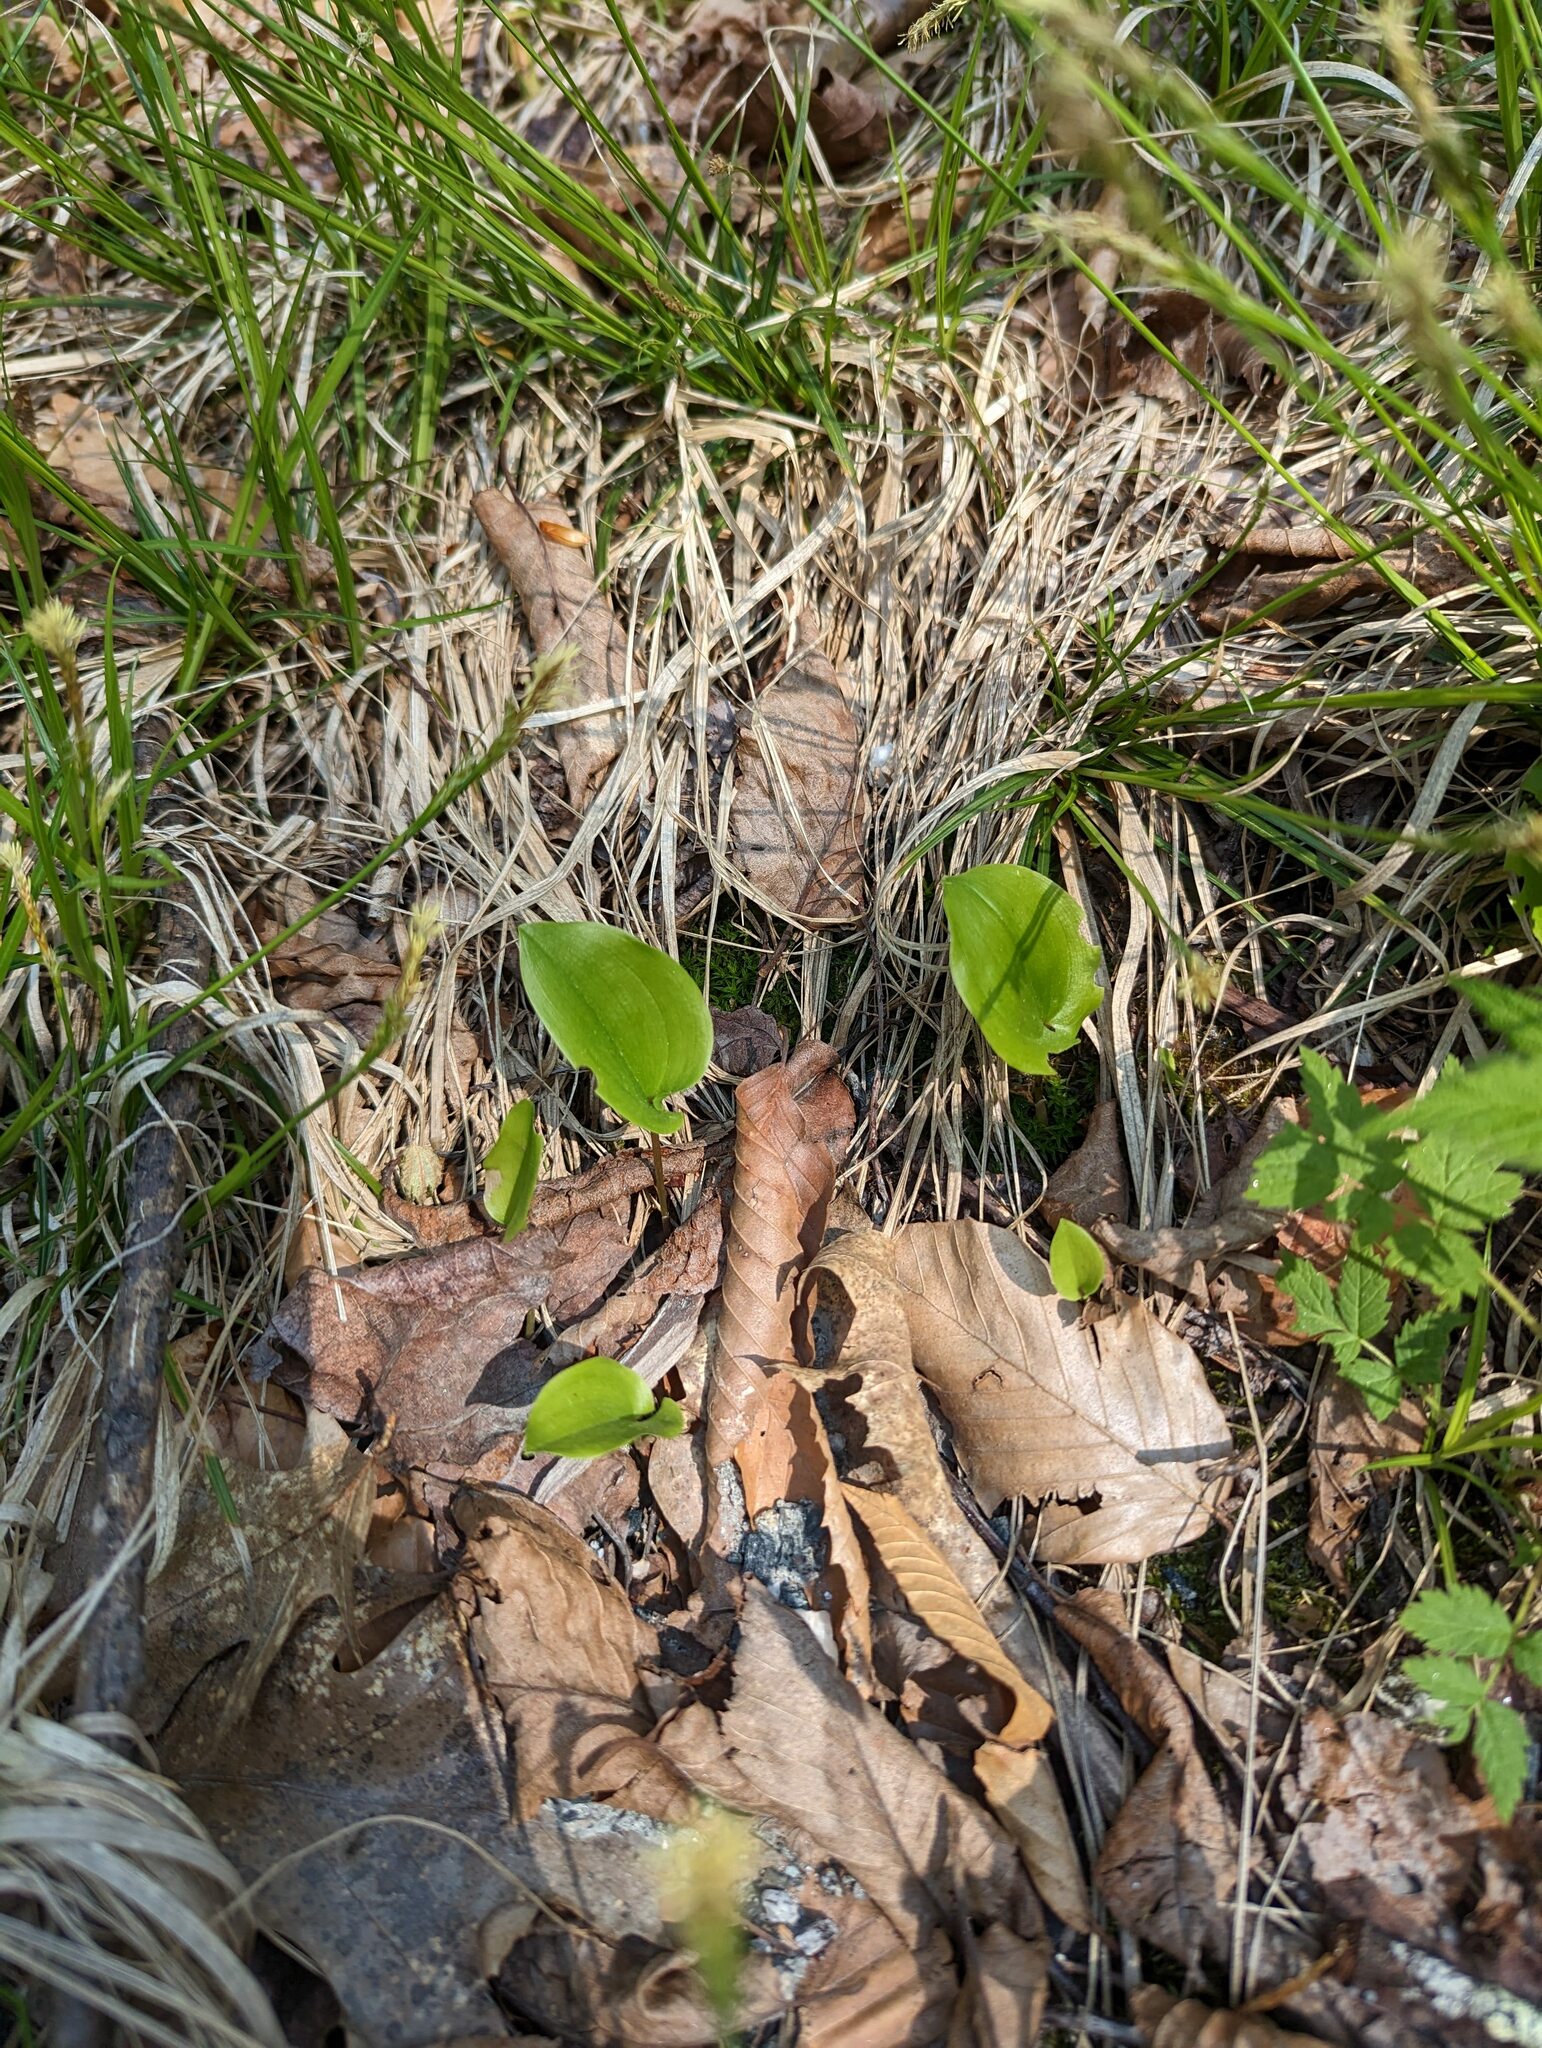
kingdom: Plantae
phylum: Tracheophyta
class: Liliopsida
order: Asparagales
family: Asparagaceae
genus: Maianthemum
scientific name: Maianthemum canadense
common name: False lily-of-the-valley
